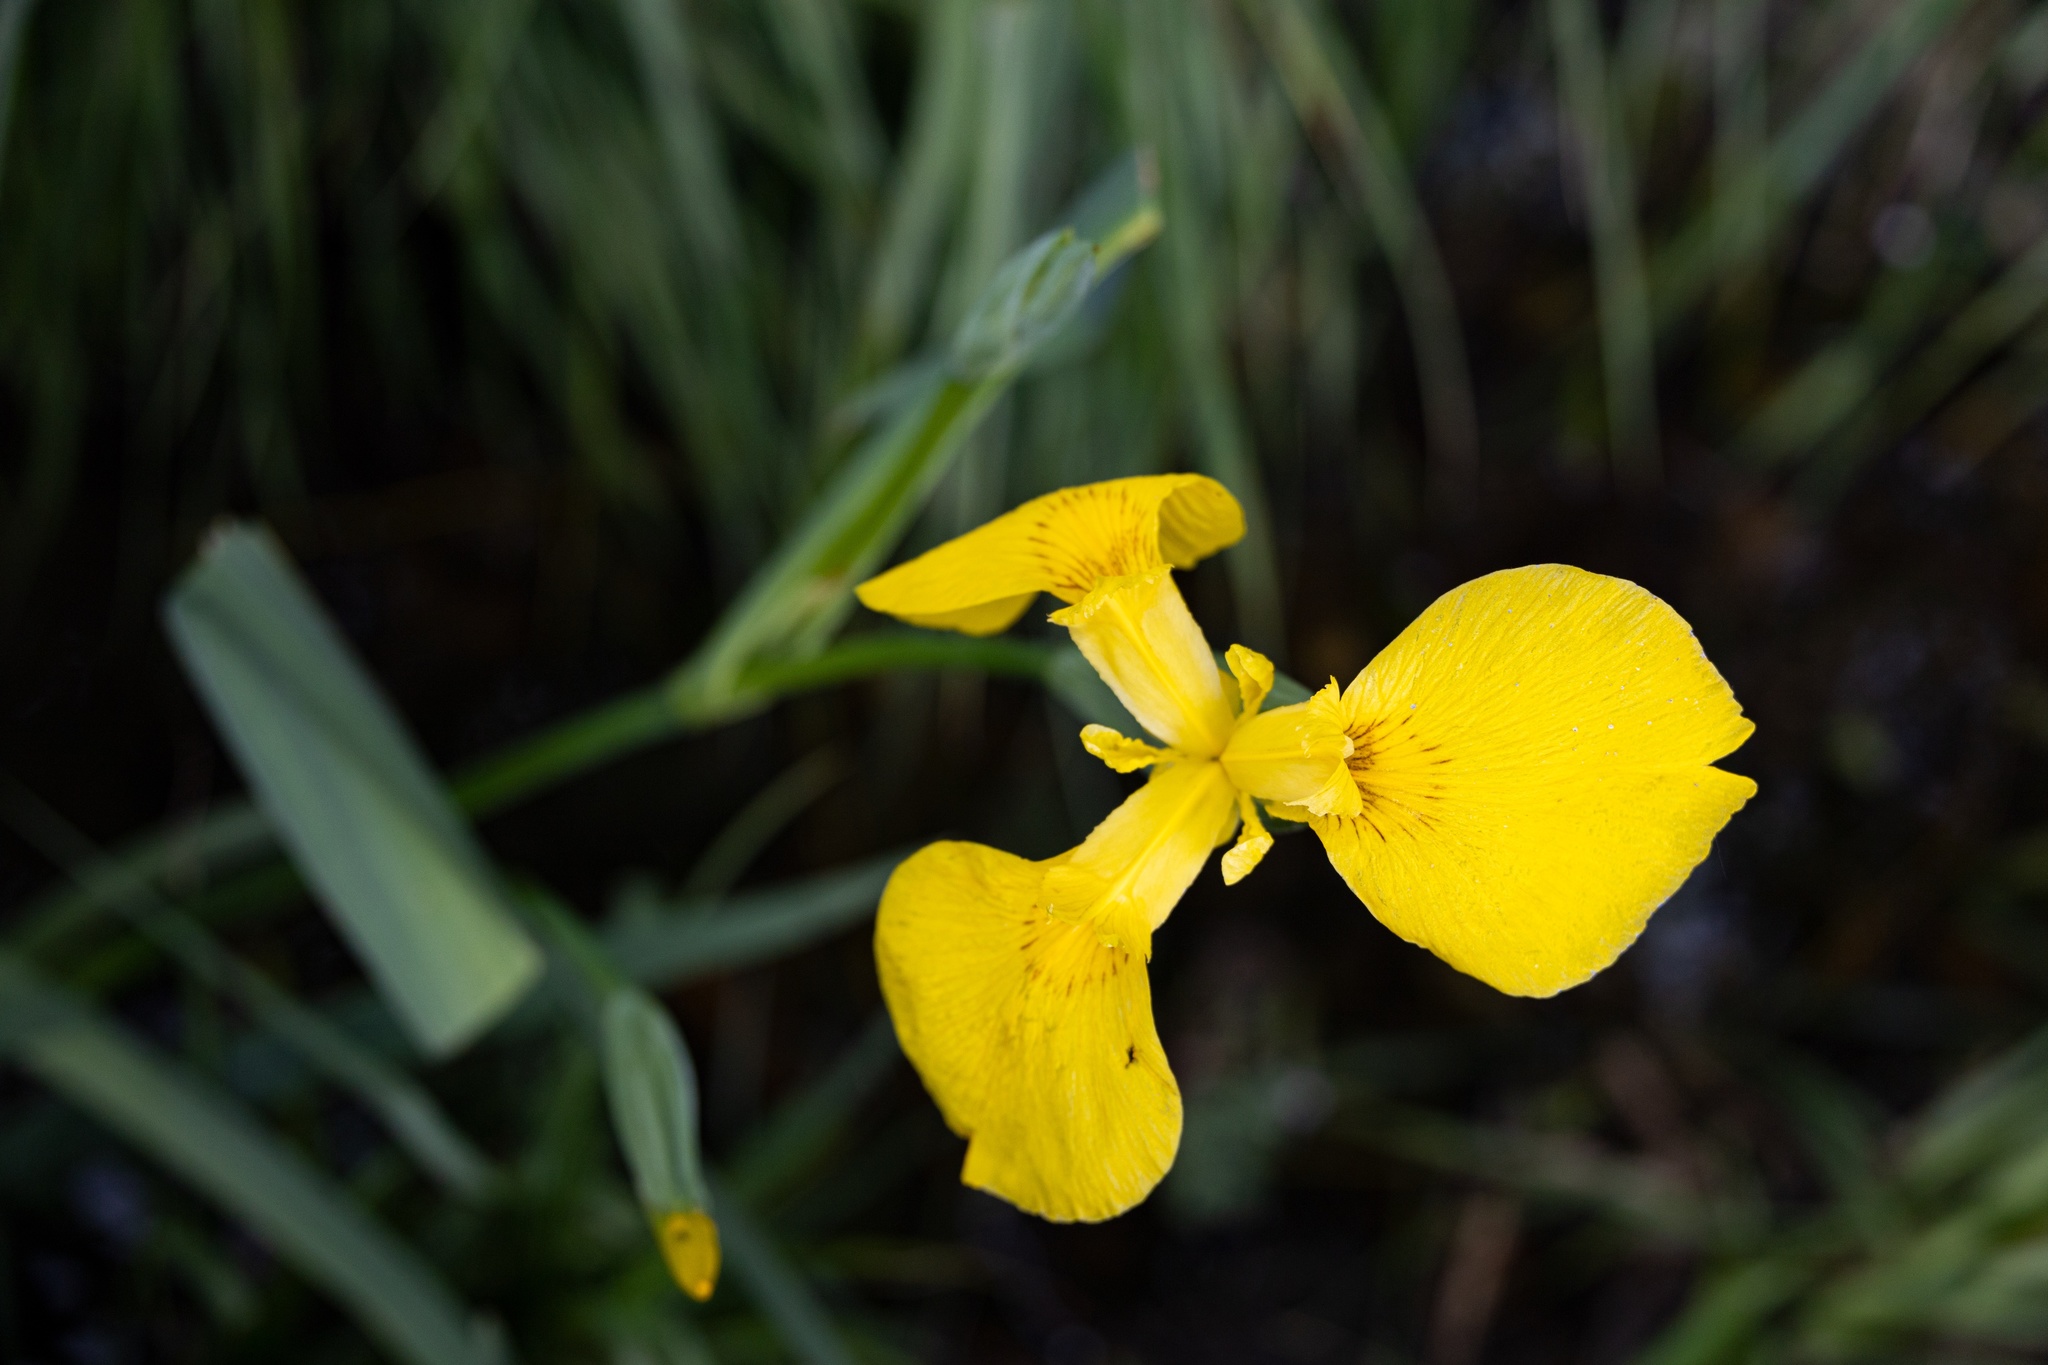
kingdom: Plantae
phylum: Tracheophyta
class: Liliopsida
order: Asparagales
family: Iridaceae
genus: Iris
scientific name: Iris pseudacorus
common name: Yellow flag
